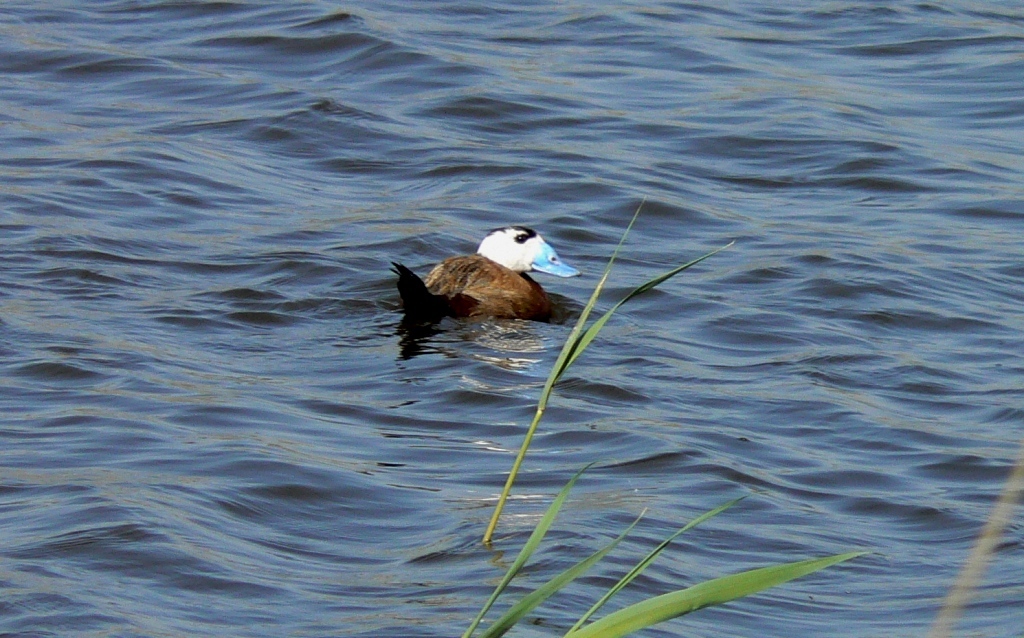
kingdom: Animalia
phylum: Chordata
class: Aves
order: Anseriformes
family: Anatidae
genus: Oxyura
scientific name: Oxyura leucocephala
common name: White-headed duck
